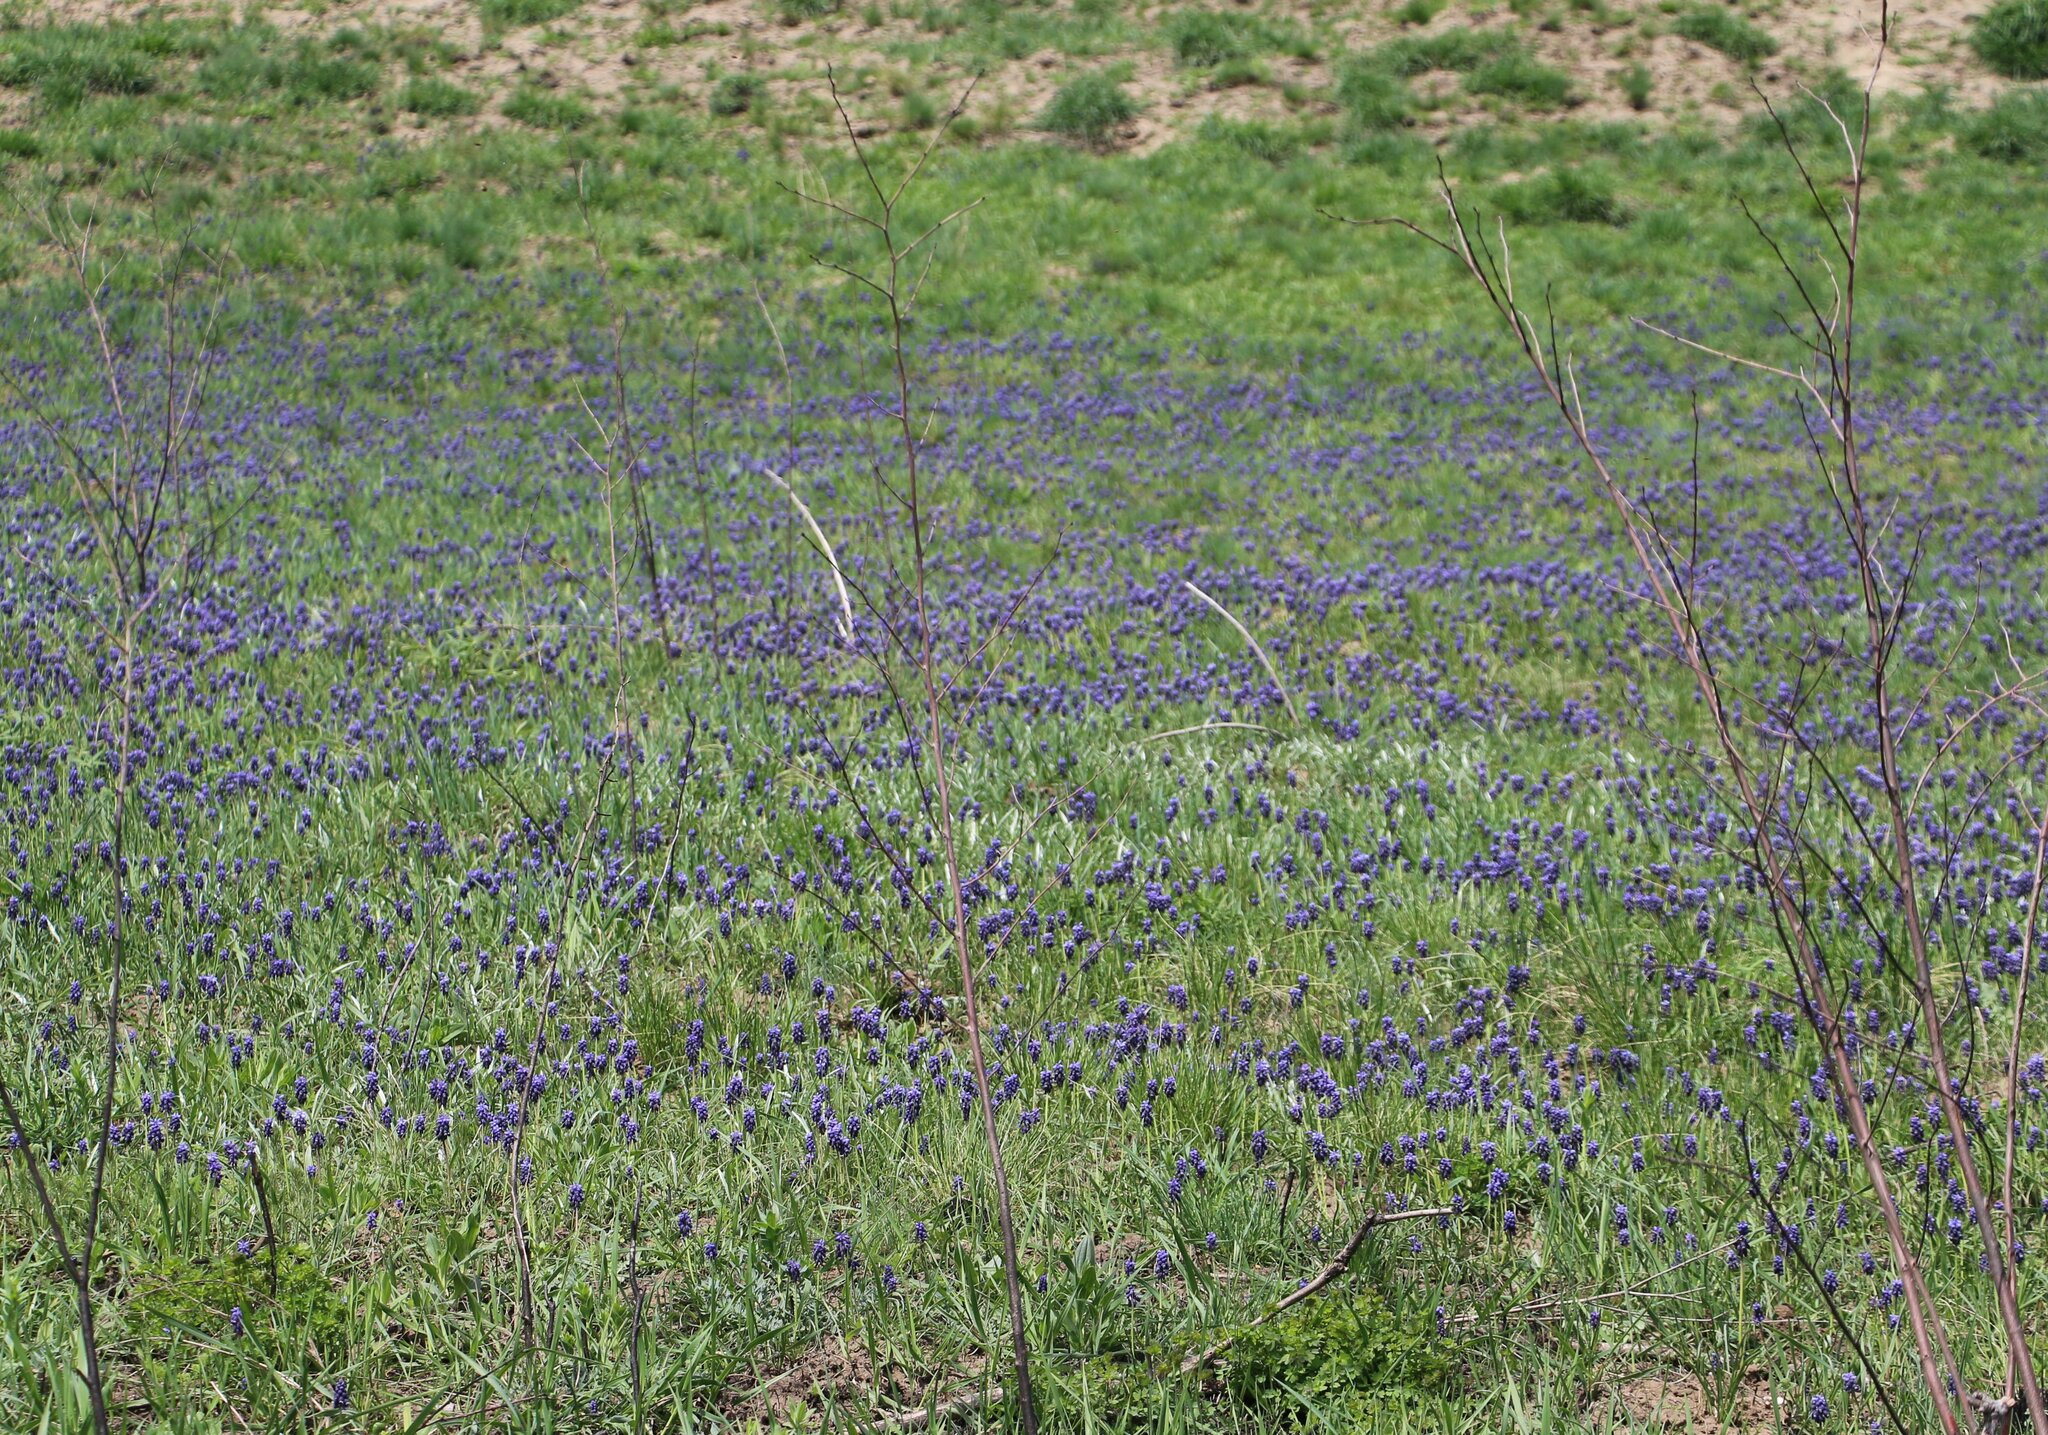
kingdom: Plantae
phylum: Tracheophyta
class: Liliopsida
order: Asparagales
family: Asparagaceae
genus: Muscari
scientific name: Muscari neglectum
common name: Grape-hyacinth
